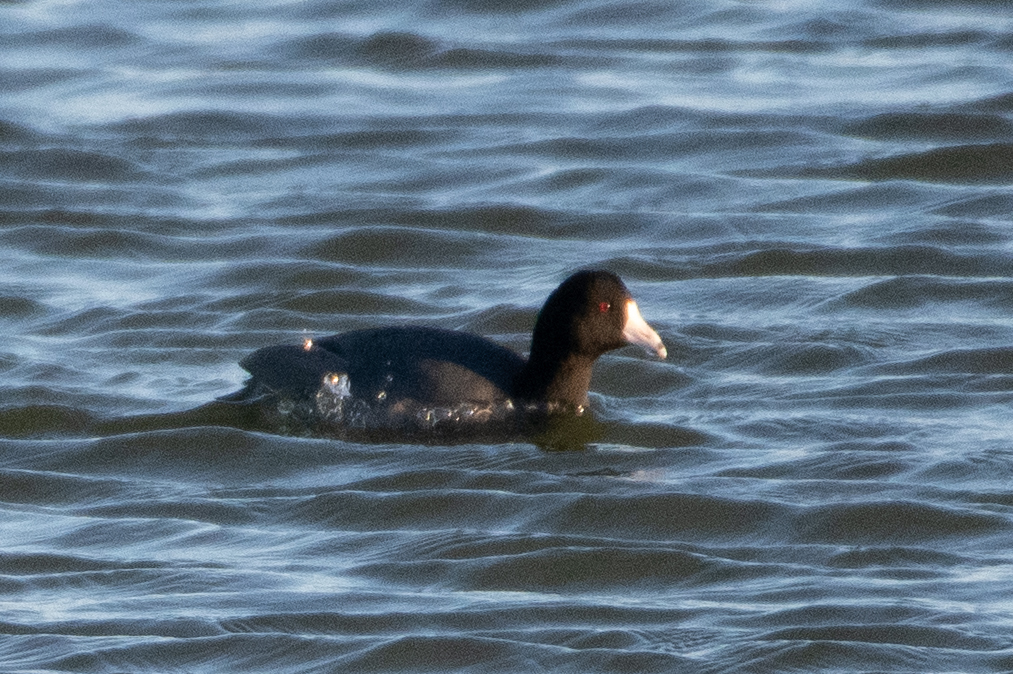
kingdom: Animalia
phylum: Chordata
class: Aves
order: Gruiformes
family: Rallidae
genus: Fulica
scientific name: Fulica americana
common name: American coot
